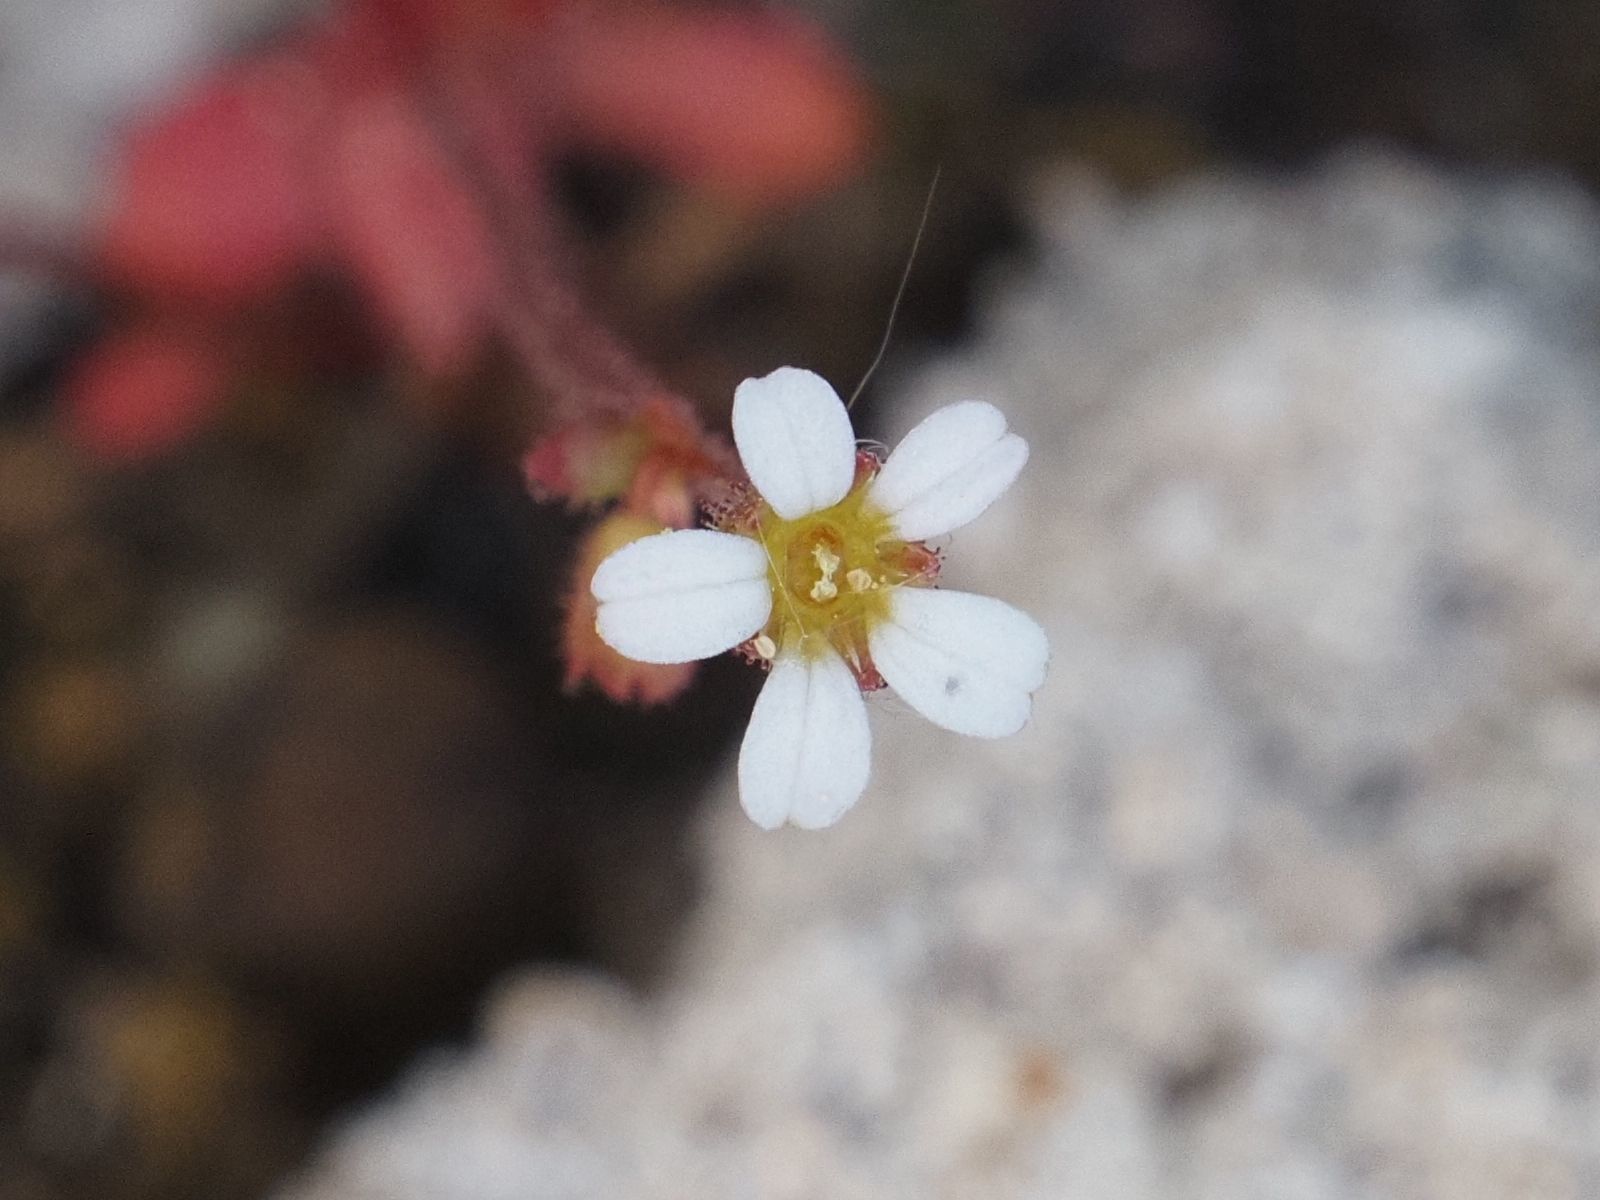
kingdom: Plantae
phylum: Tracheophyta
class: Magnoliopsida
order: Saxifragales
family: Saxifragaceae
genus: Saxifraga
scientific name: Saxifraga tridactylites
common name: Rue-leaved saxifrage
